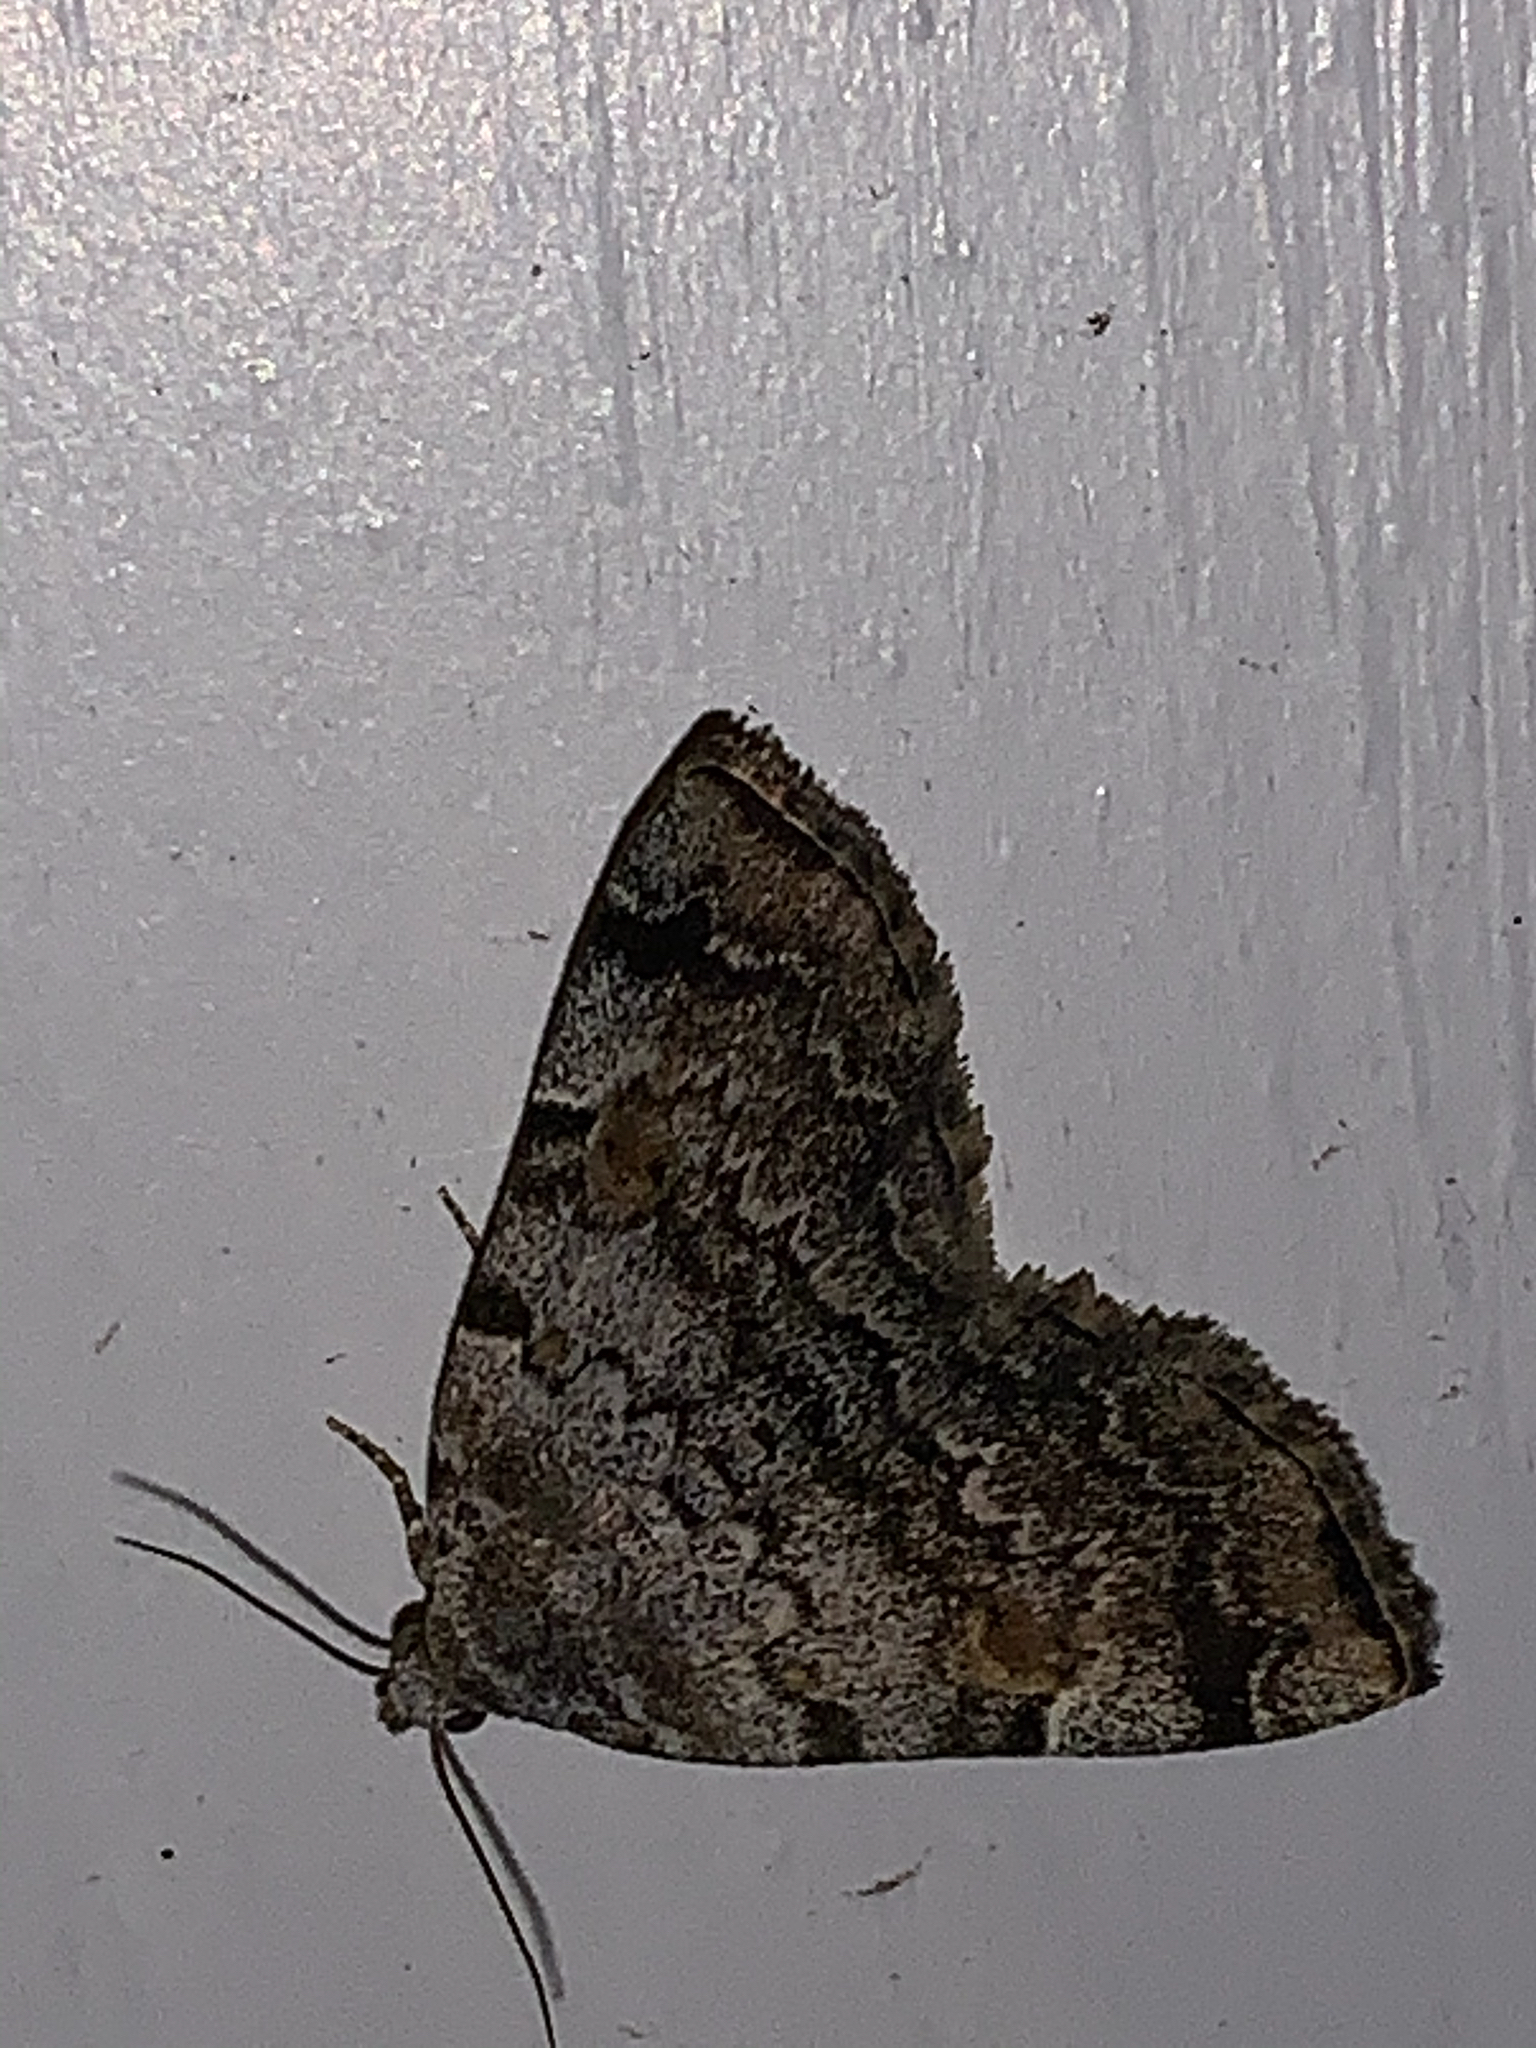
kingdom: Animalia
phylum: Arthropoda
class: Insecta
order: Lepidoptera
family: Erebidae
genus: Idia
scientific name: Idia americalis
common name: American idia moth
